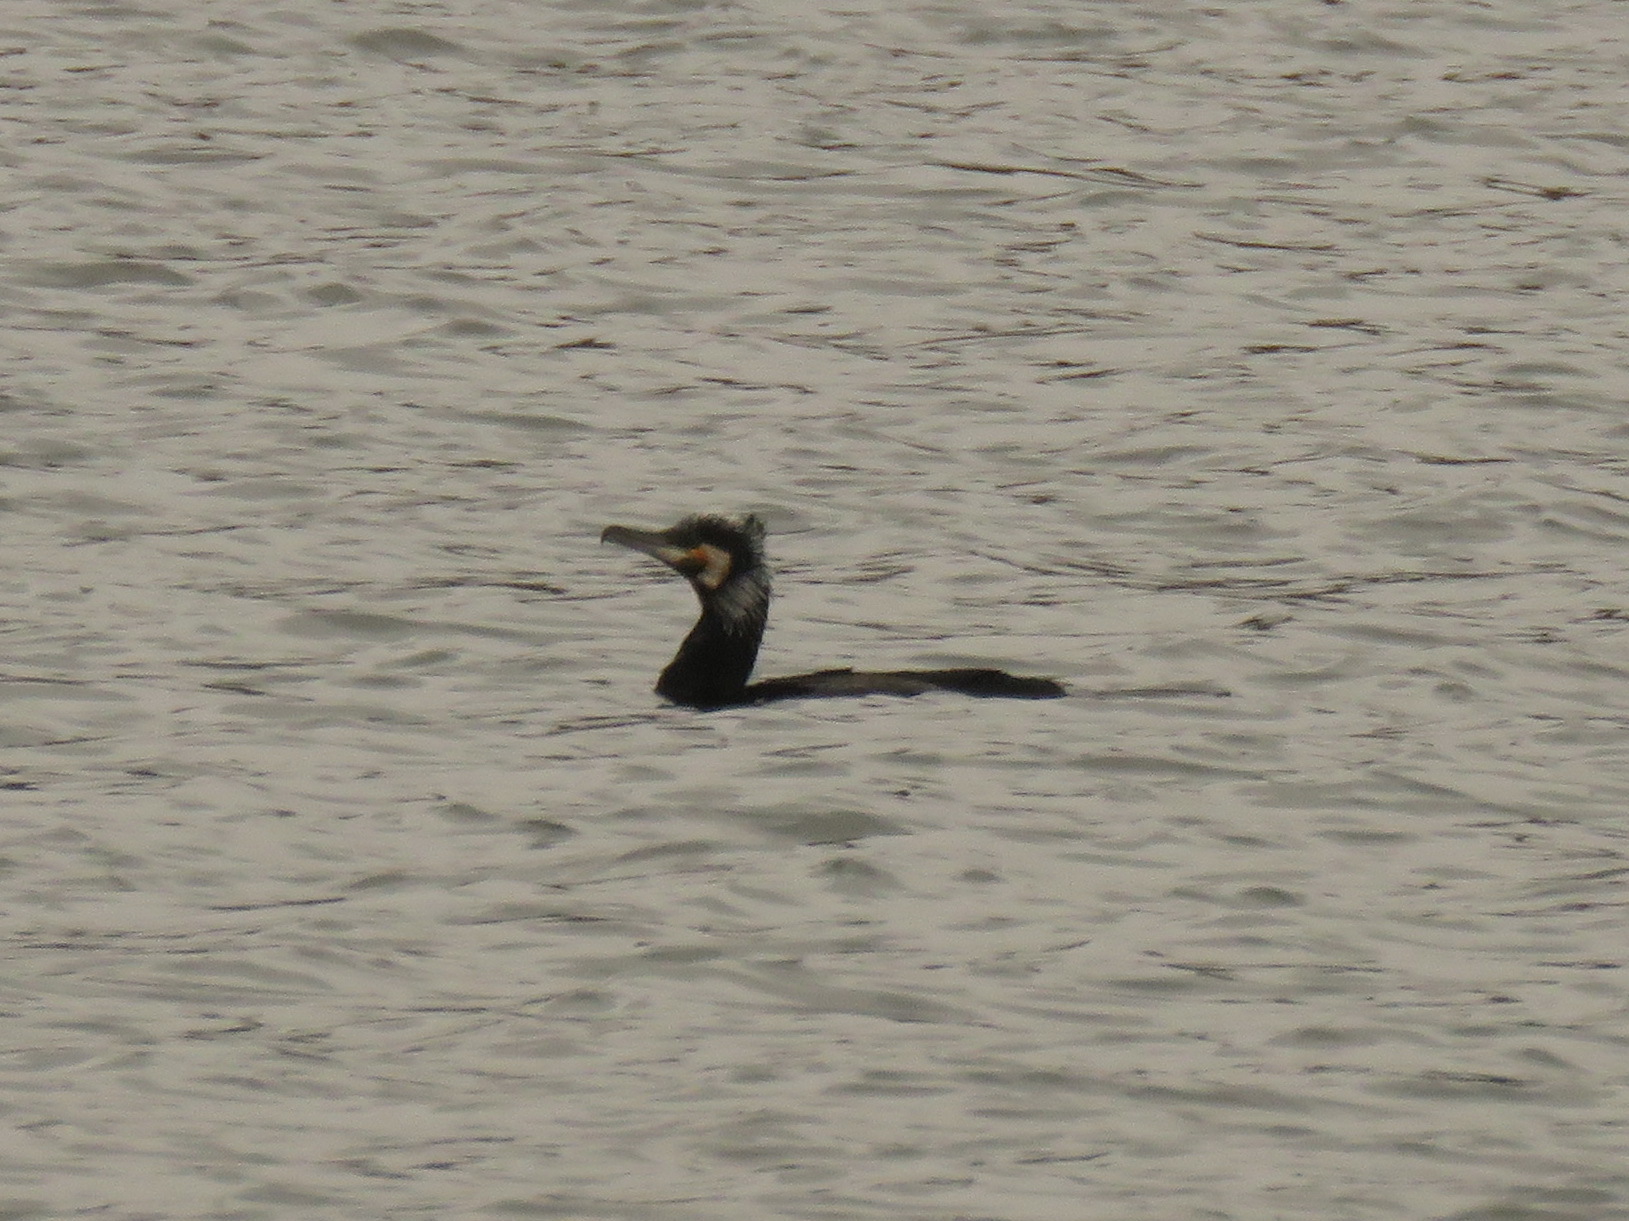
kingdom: Animalia
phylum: Chordata
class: Aves
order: Suliformes
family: Phalacrocoracidae
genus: Phalacrocorax
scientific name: Phalacrocorax carbo
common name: Great cormorant
